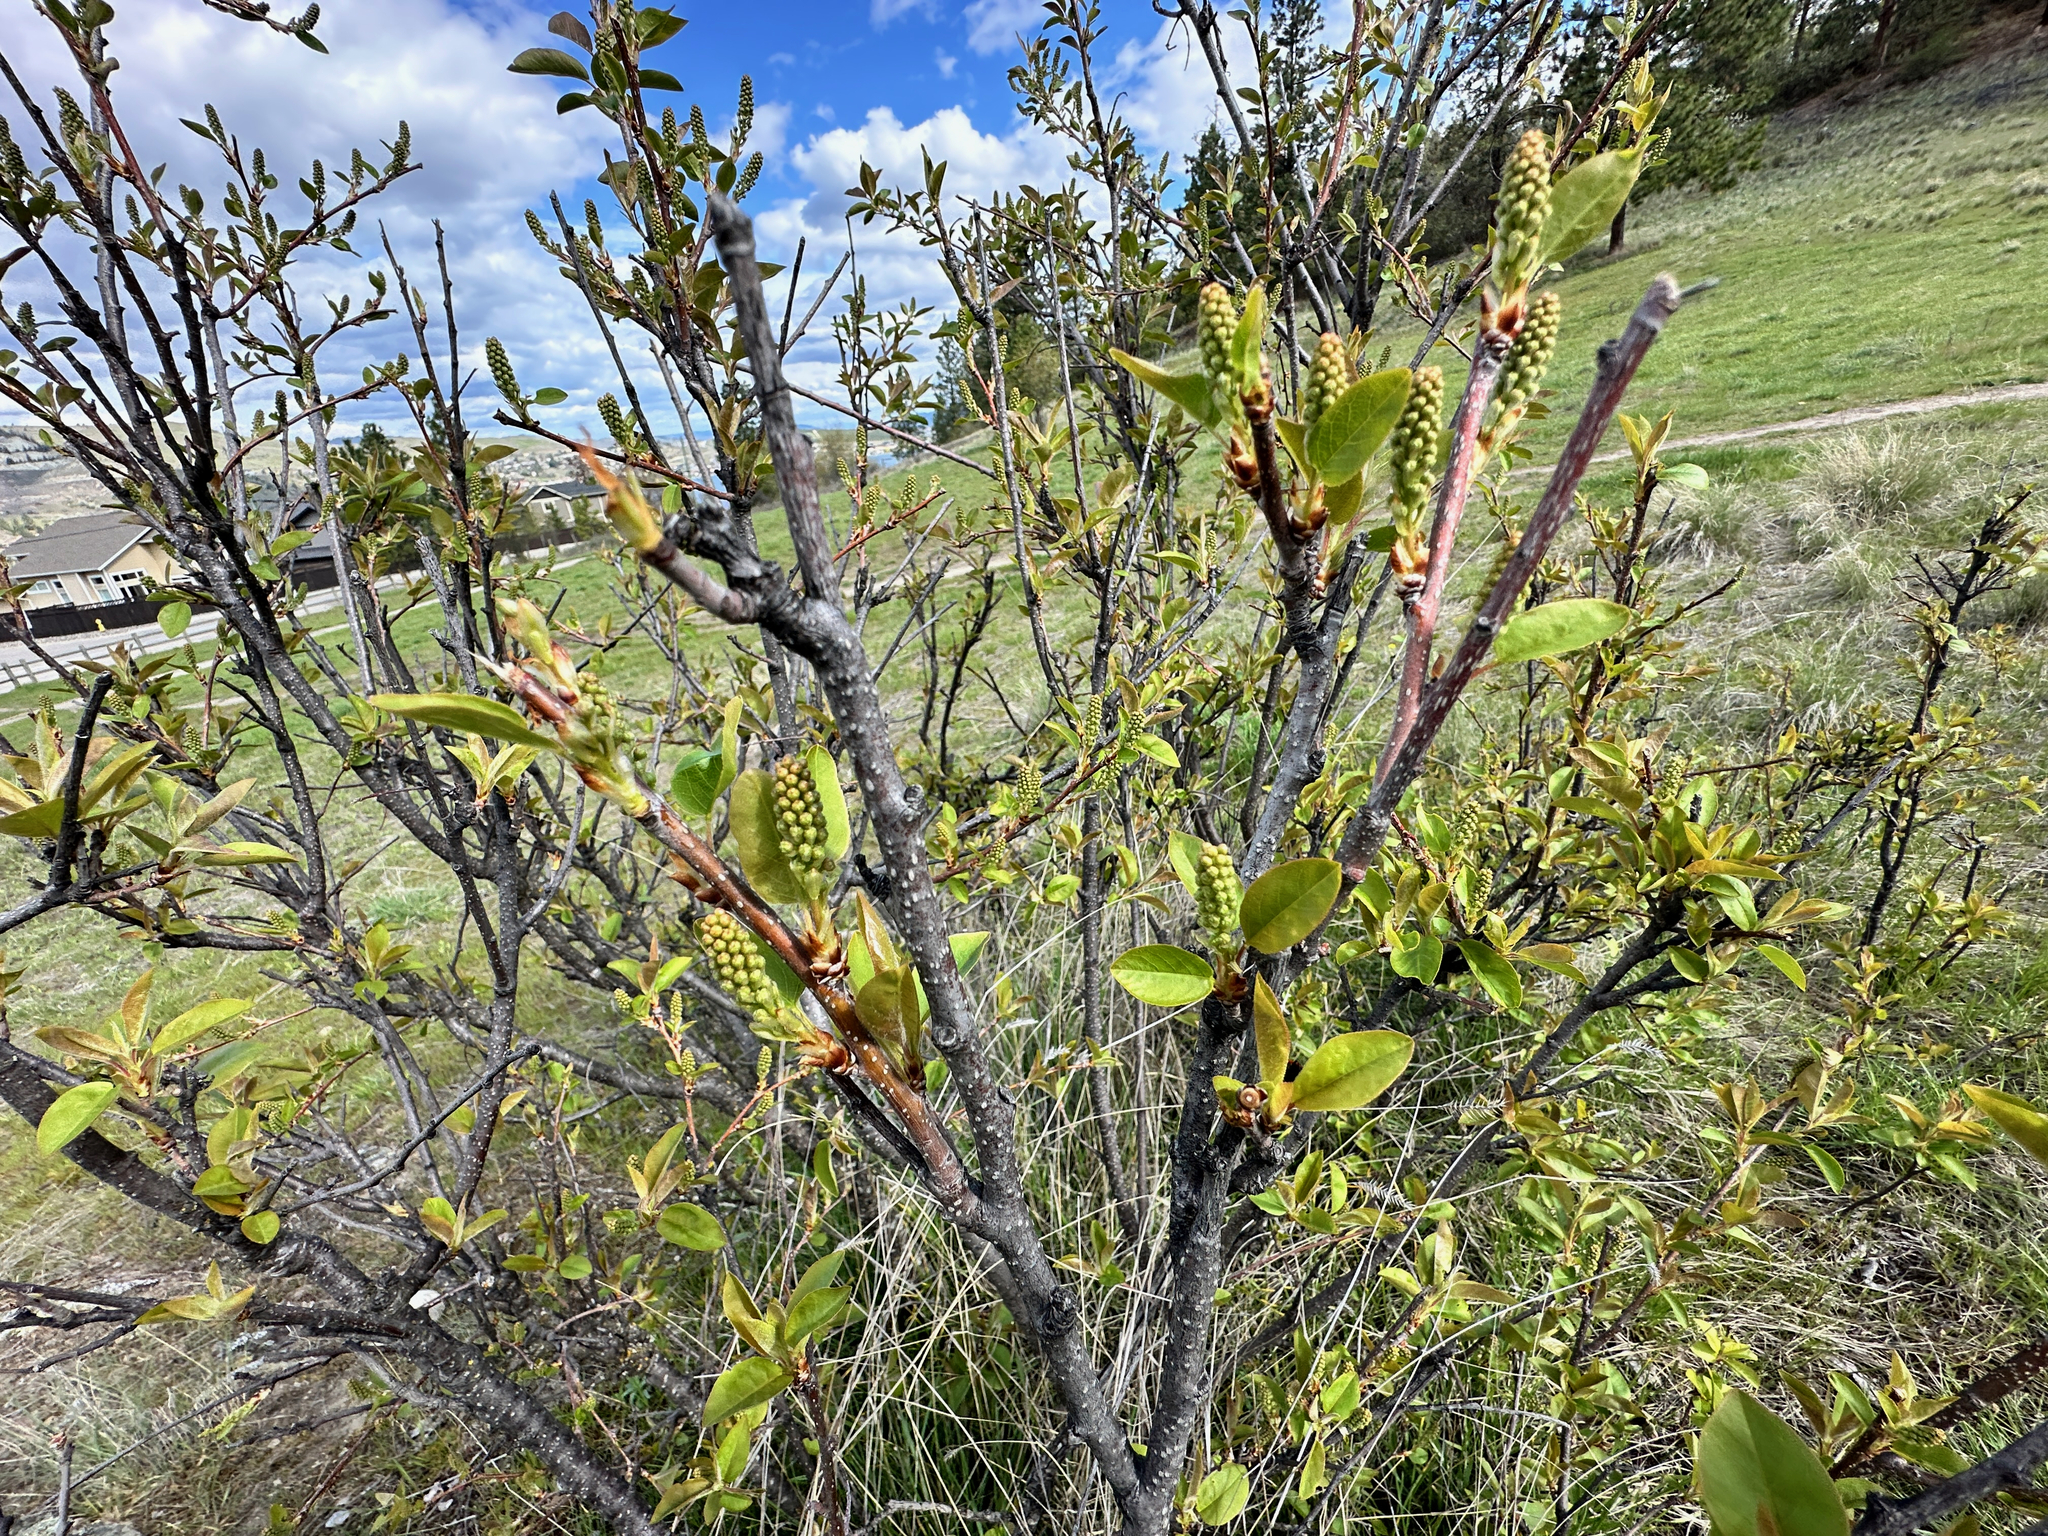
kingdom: Plantae
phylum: Tracheophyta
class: Magnoliopsida
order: Rosales
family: Rosaceae
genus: Prunus
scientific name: Prunus virginiana
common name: Chokecherry
